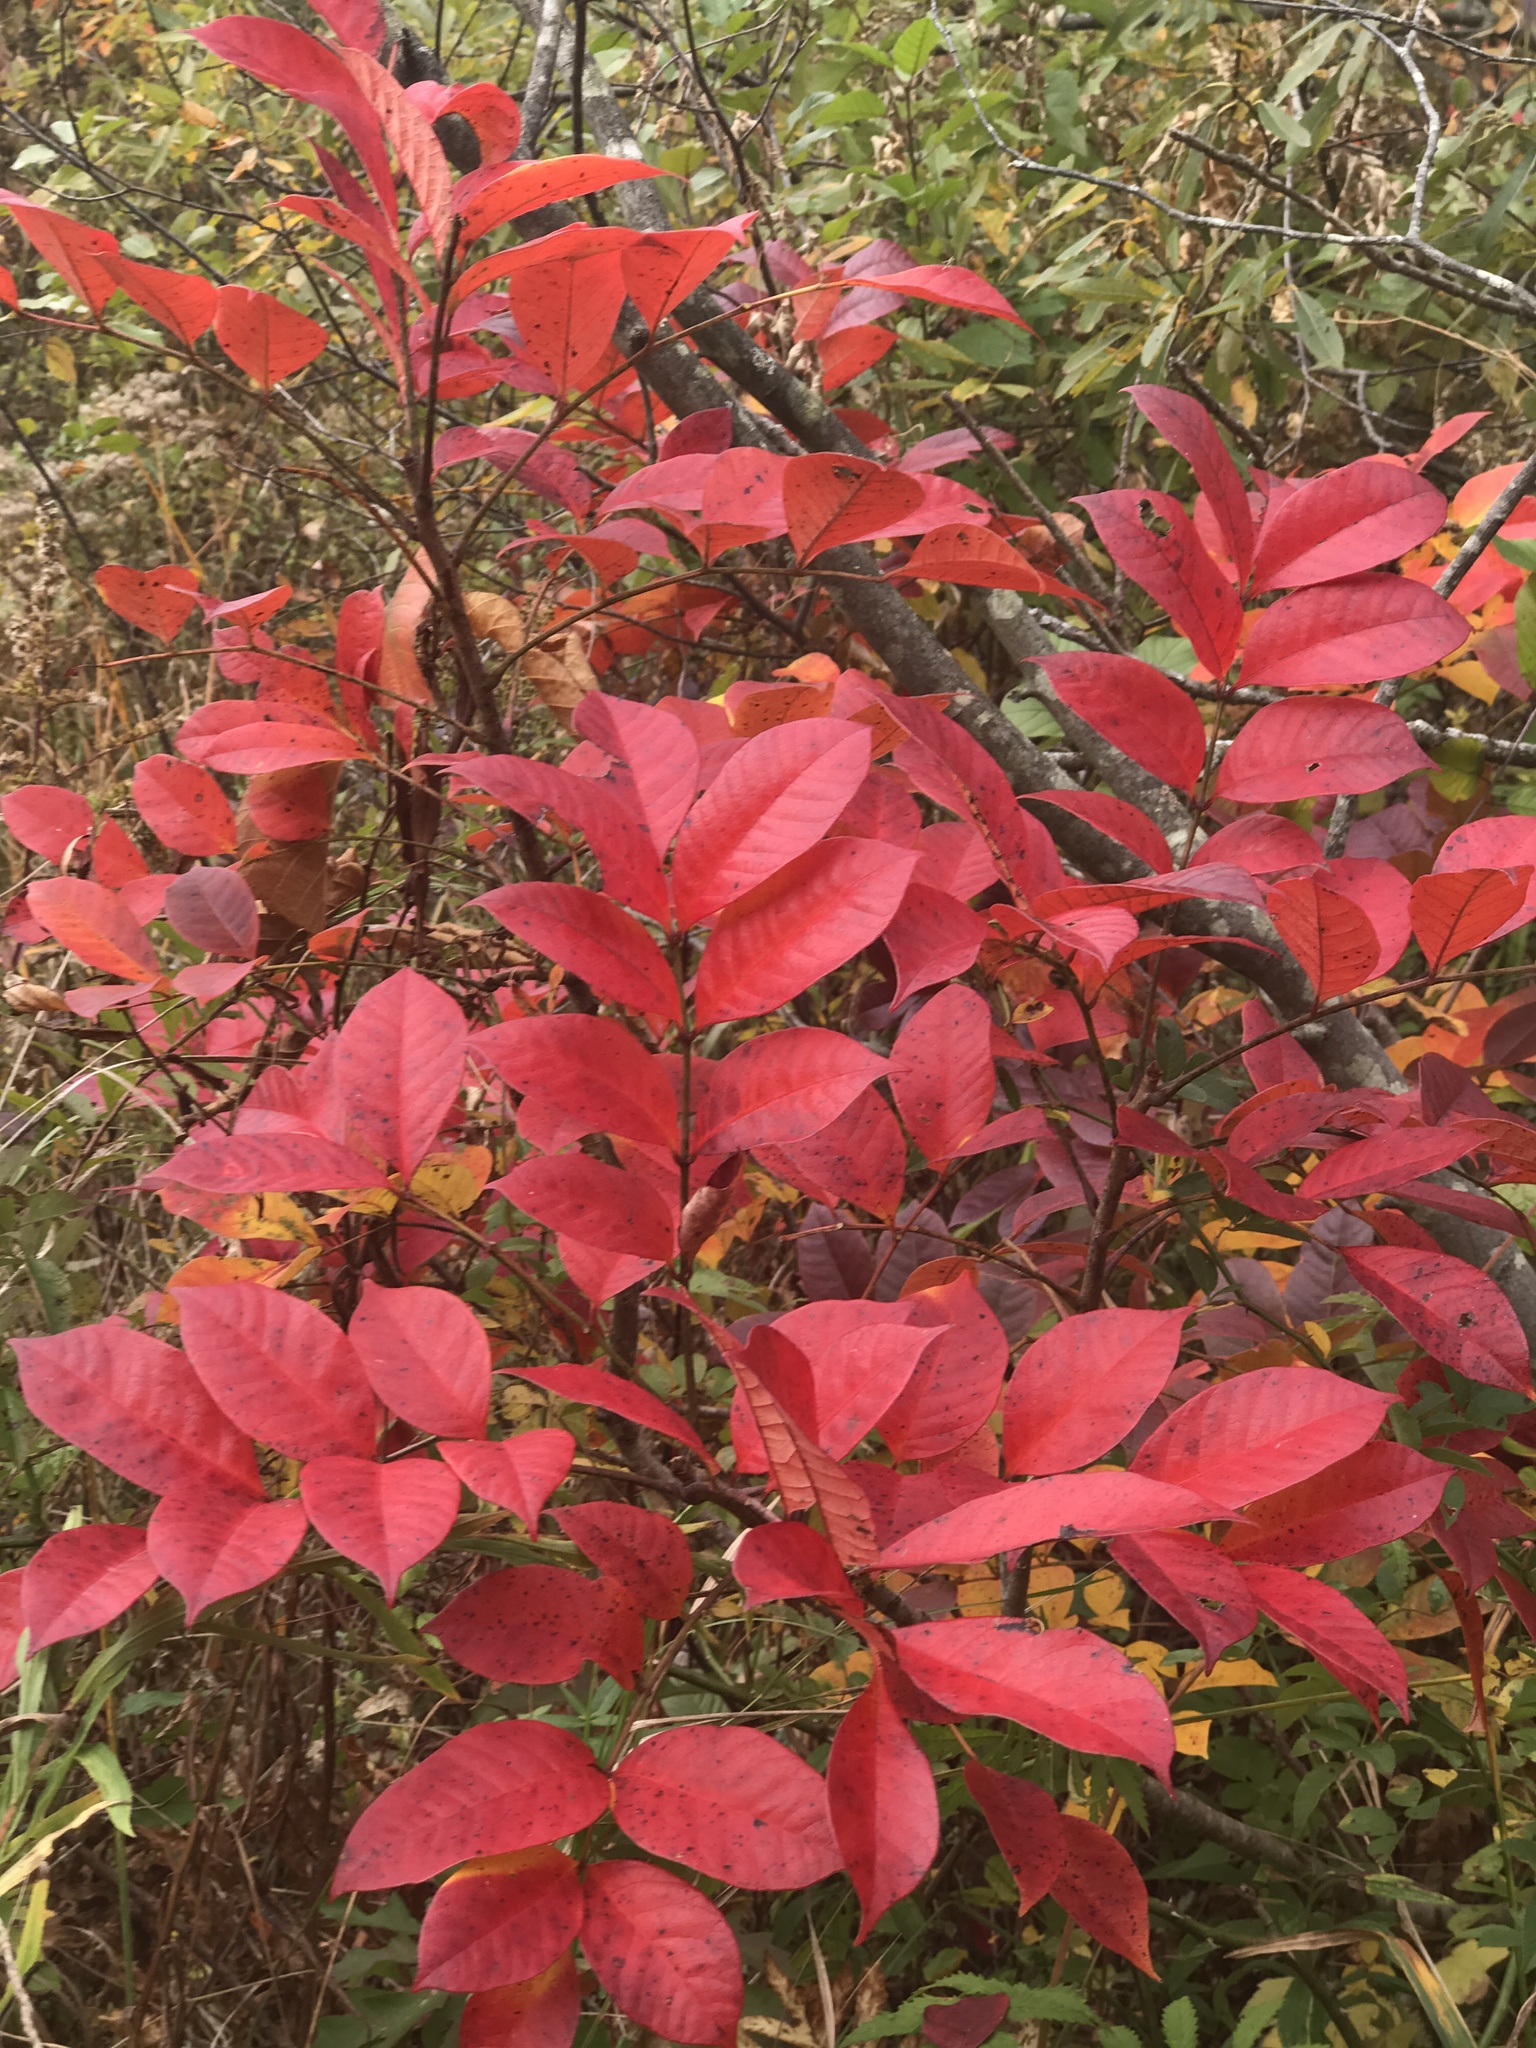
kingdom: Plantae
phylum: Tracheophyta
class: Magnoliopsida
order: Sapindales
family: Anacardiaceae
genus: Toxicodendron
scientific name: Toxicodendron vernix
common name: Poison sumac
